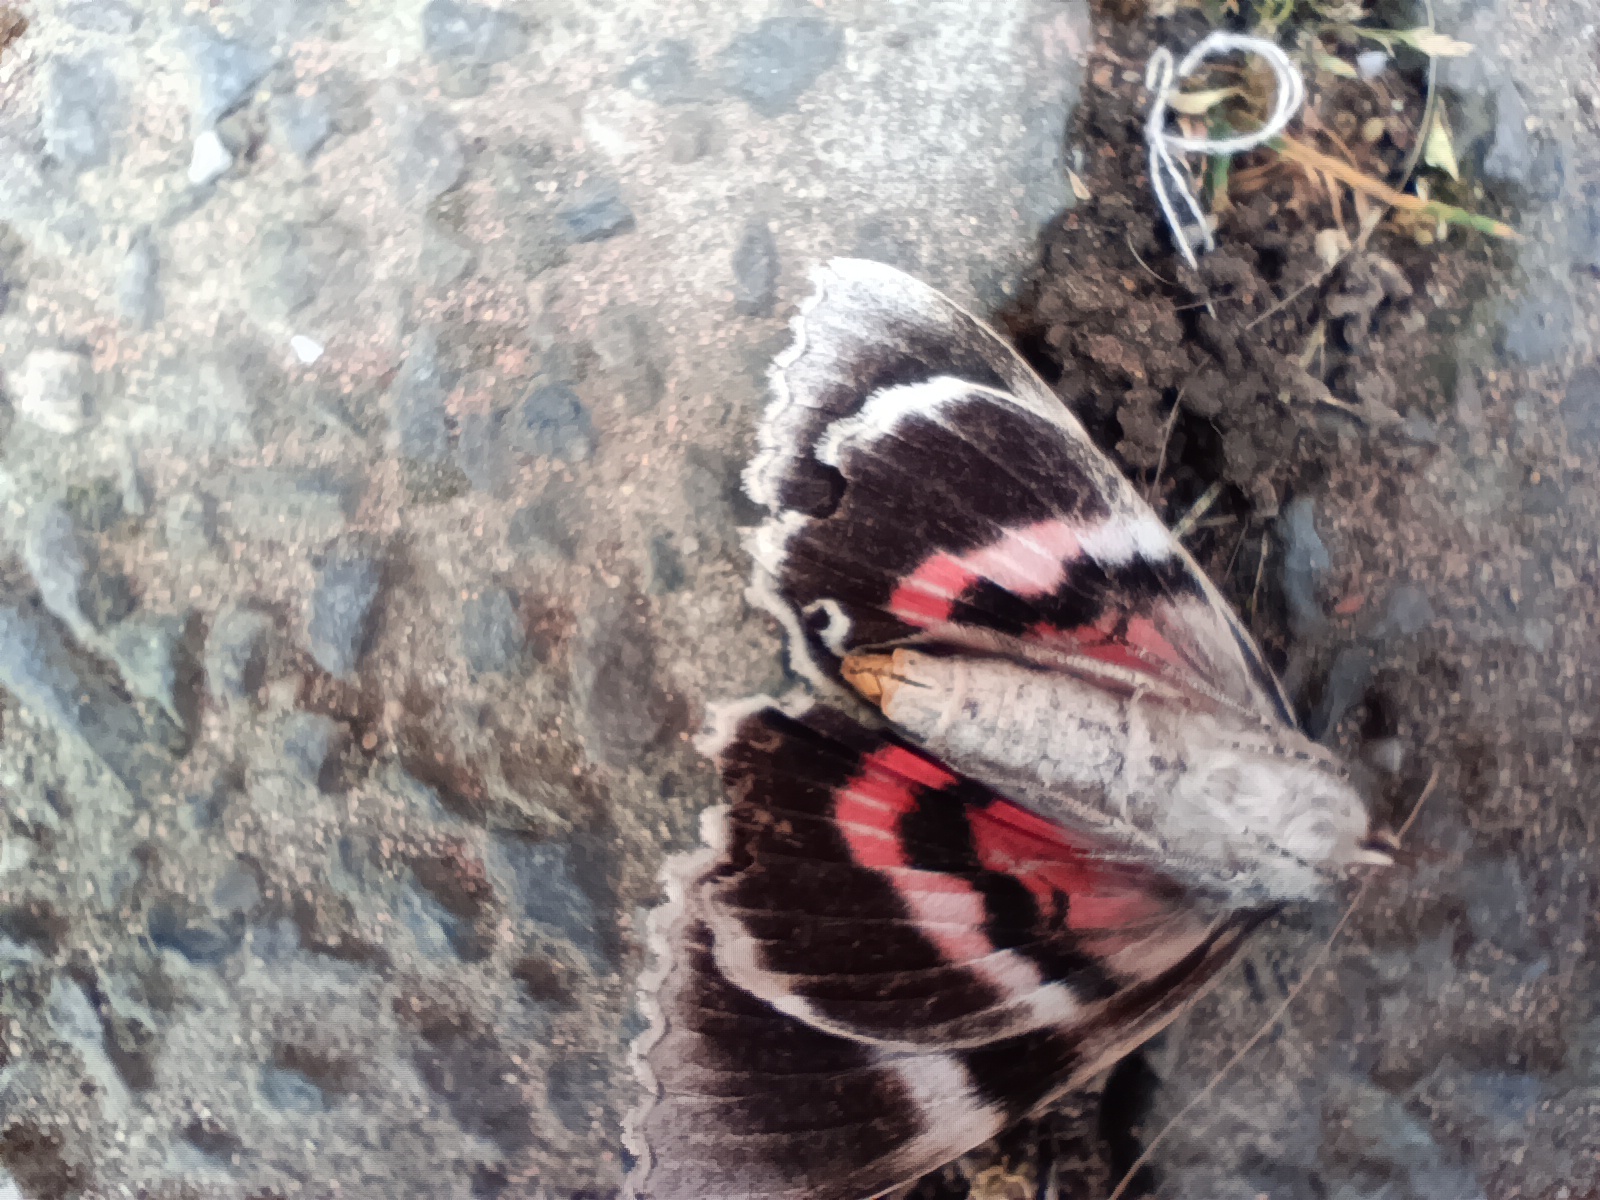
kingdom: Animalia
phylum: Arthropoda
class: Insecta
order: Lepidoptera
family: Erebidae
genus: Catocala
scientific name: Catocala nupta
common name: Red underwing
